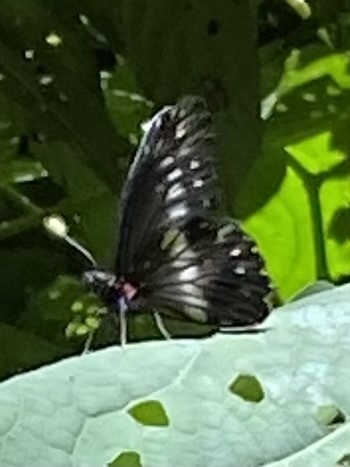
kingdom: Animalia
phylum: Arthropoda
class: Insecta
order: Lepidoptera
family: Pieridae
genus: Archonias
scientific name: Archonias flisa
